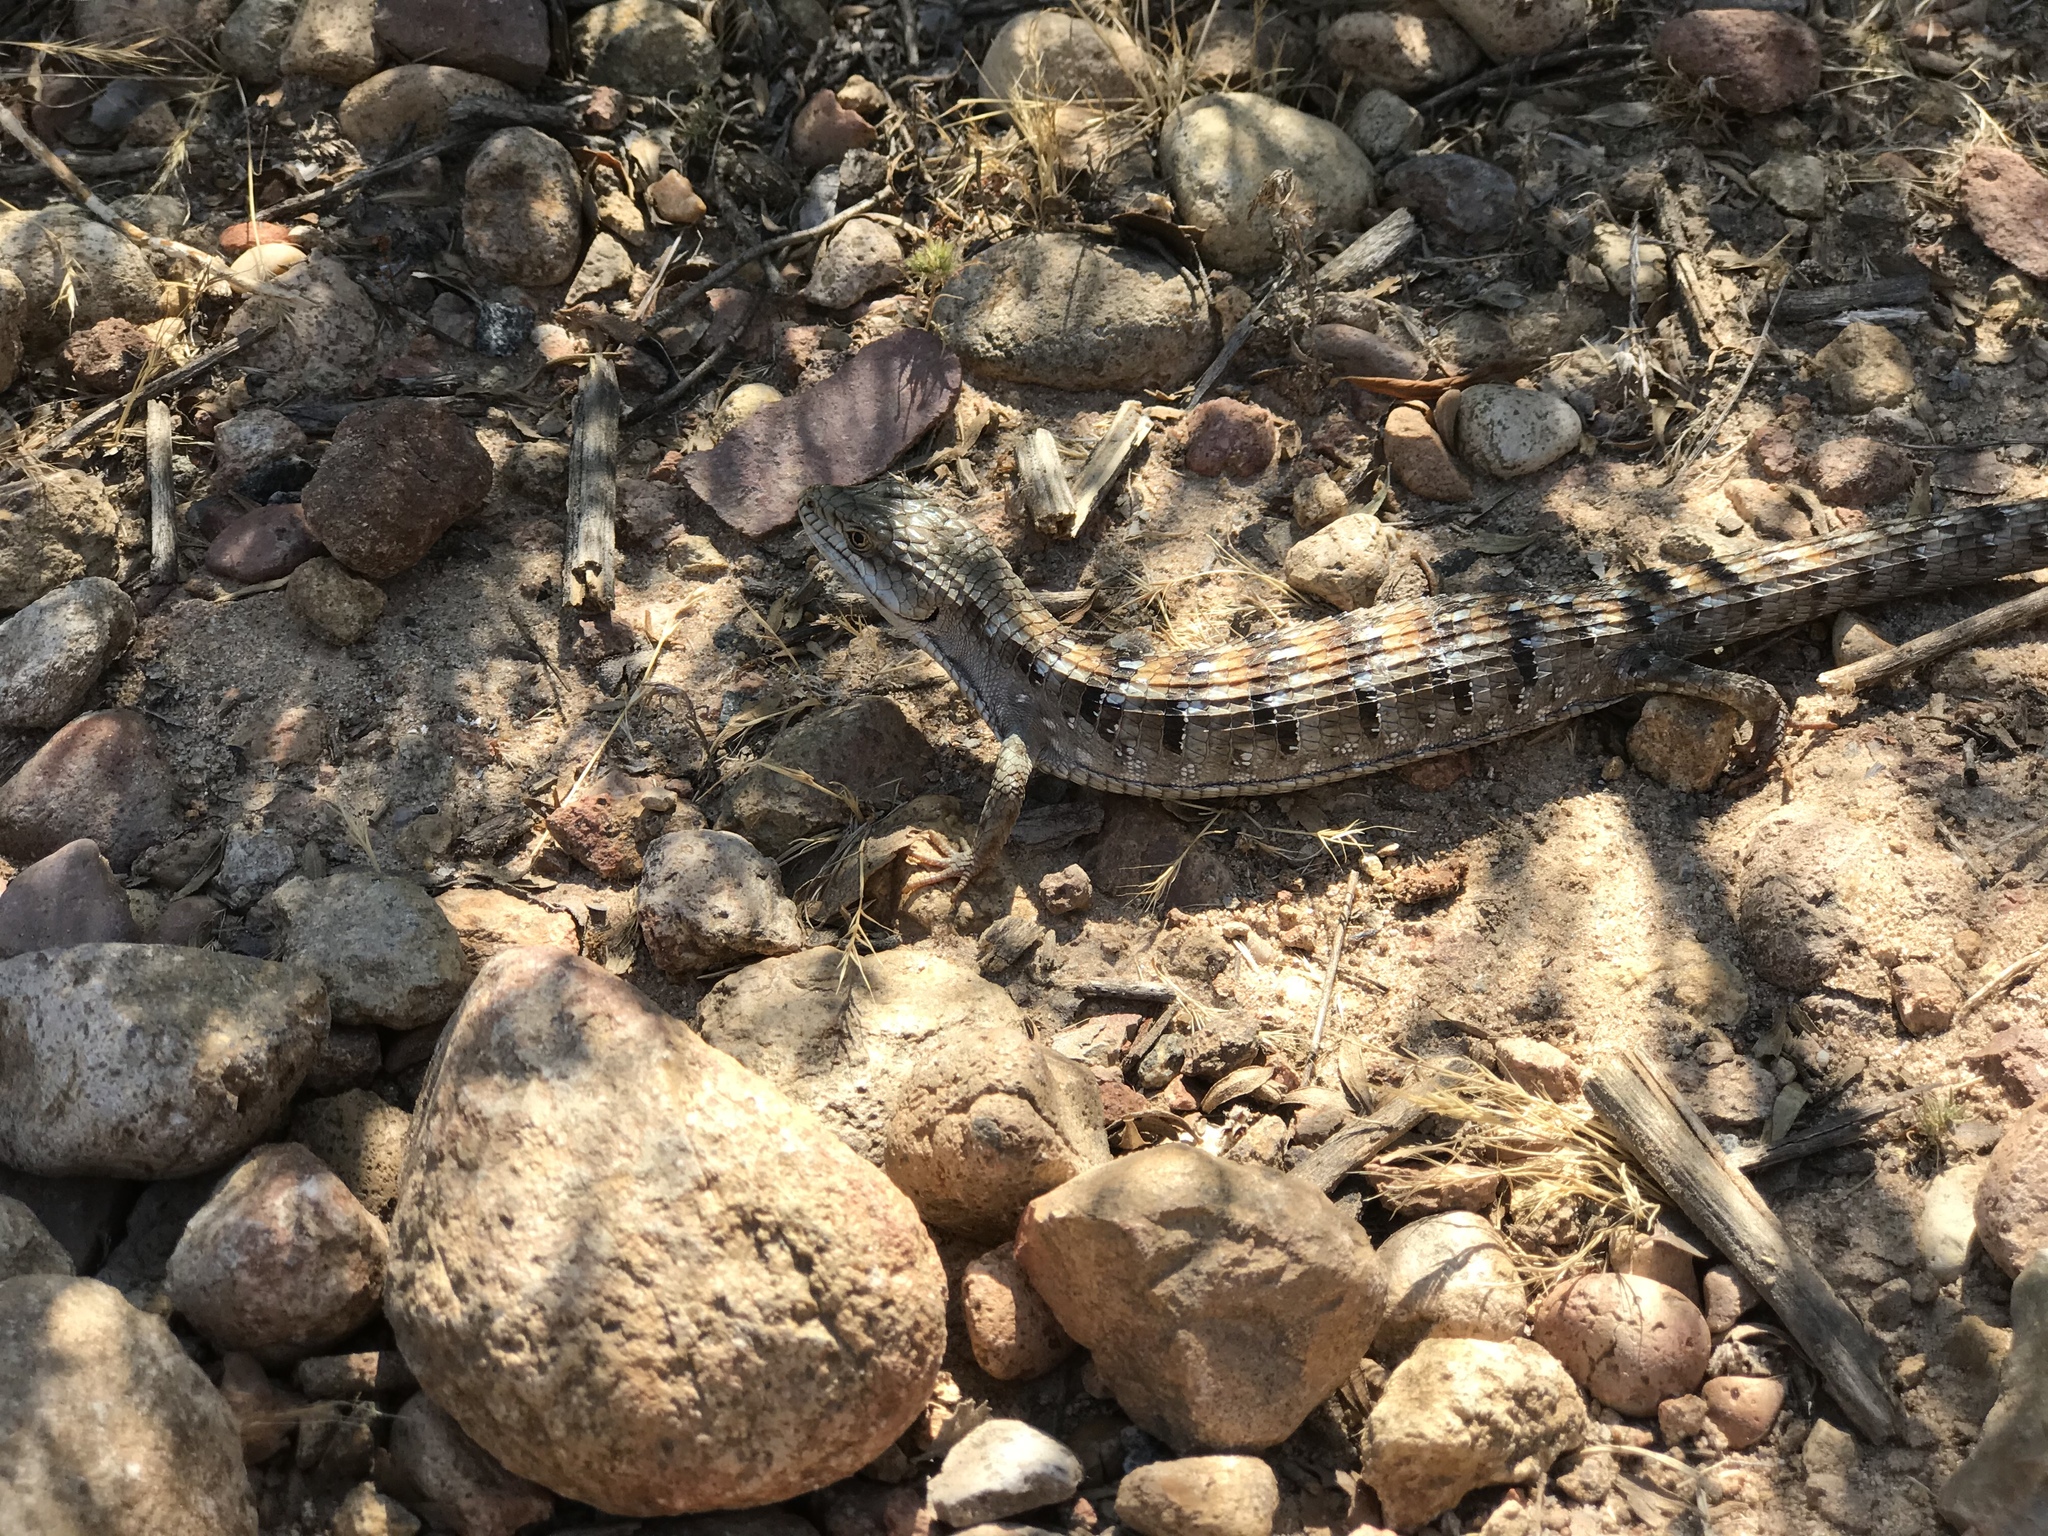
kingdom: Animalia
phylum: Chordata
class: Squamata
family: Anguidae
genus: Elgaria
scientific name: Elgaria multicarinata
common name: Southern alligator lizard
